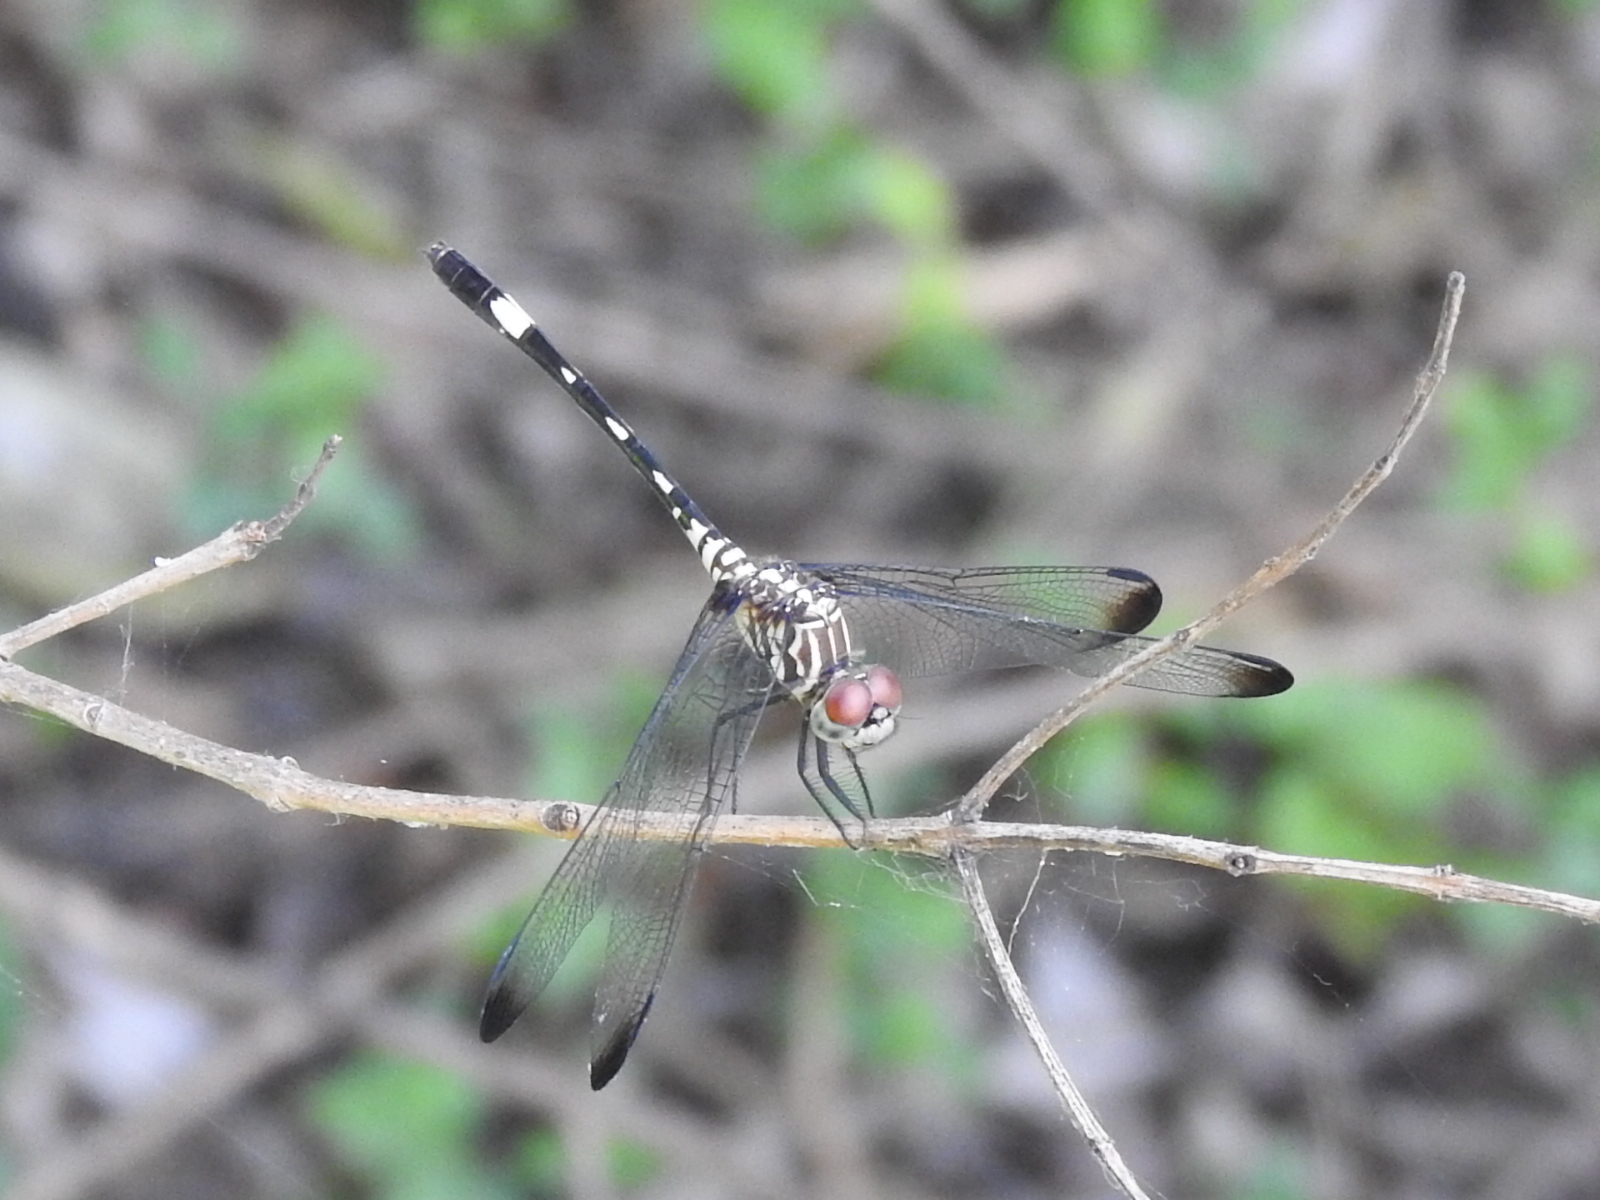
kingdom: Animalia
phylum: Arthropoda
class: Insecta
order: Odonata
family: Libellulidae
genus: Dythemis
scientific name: Dythemis velox
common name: Swift setwing
